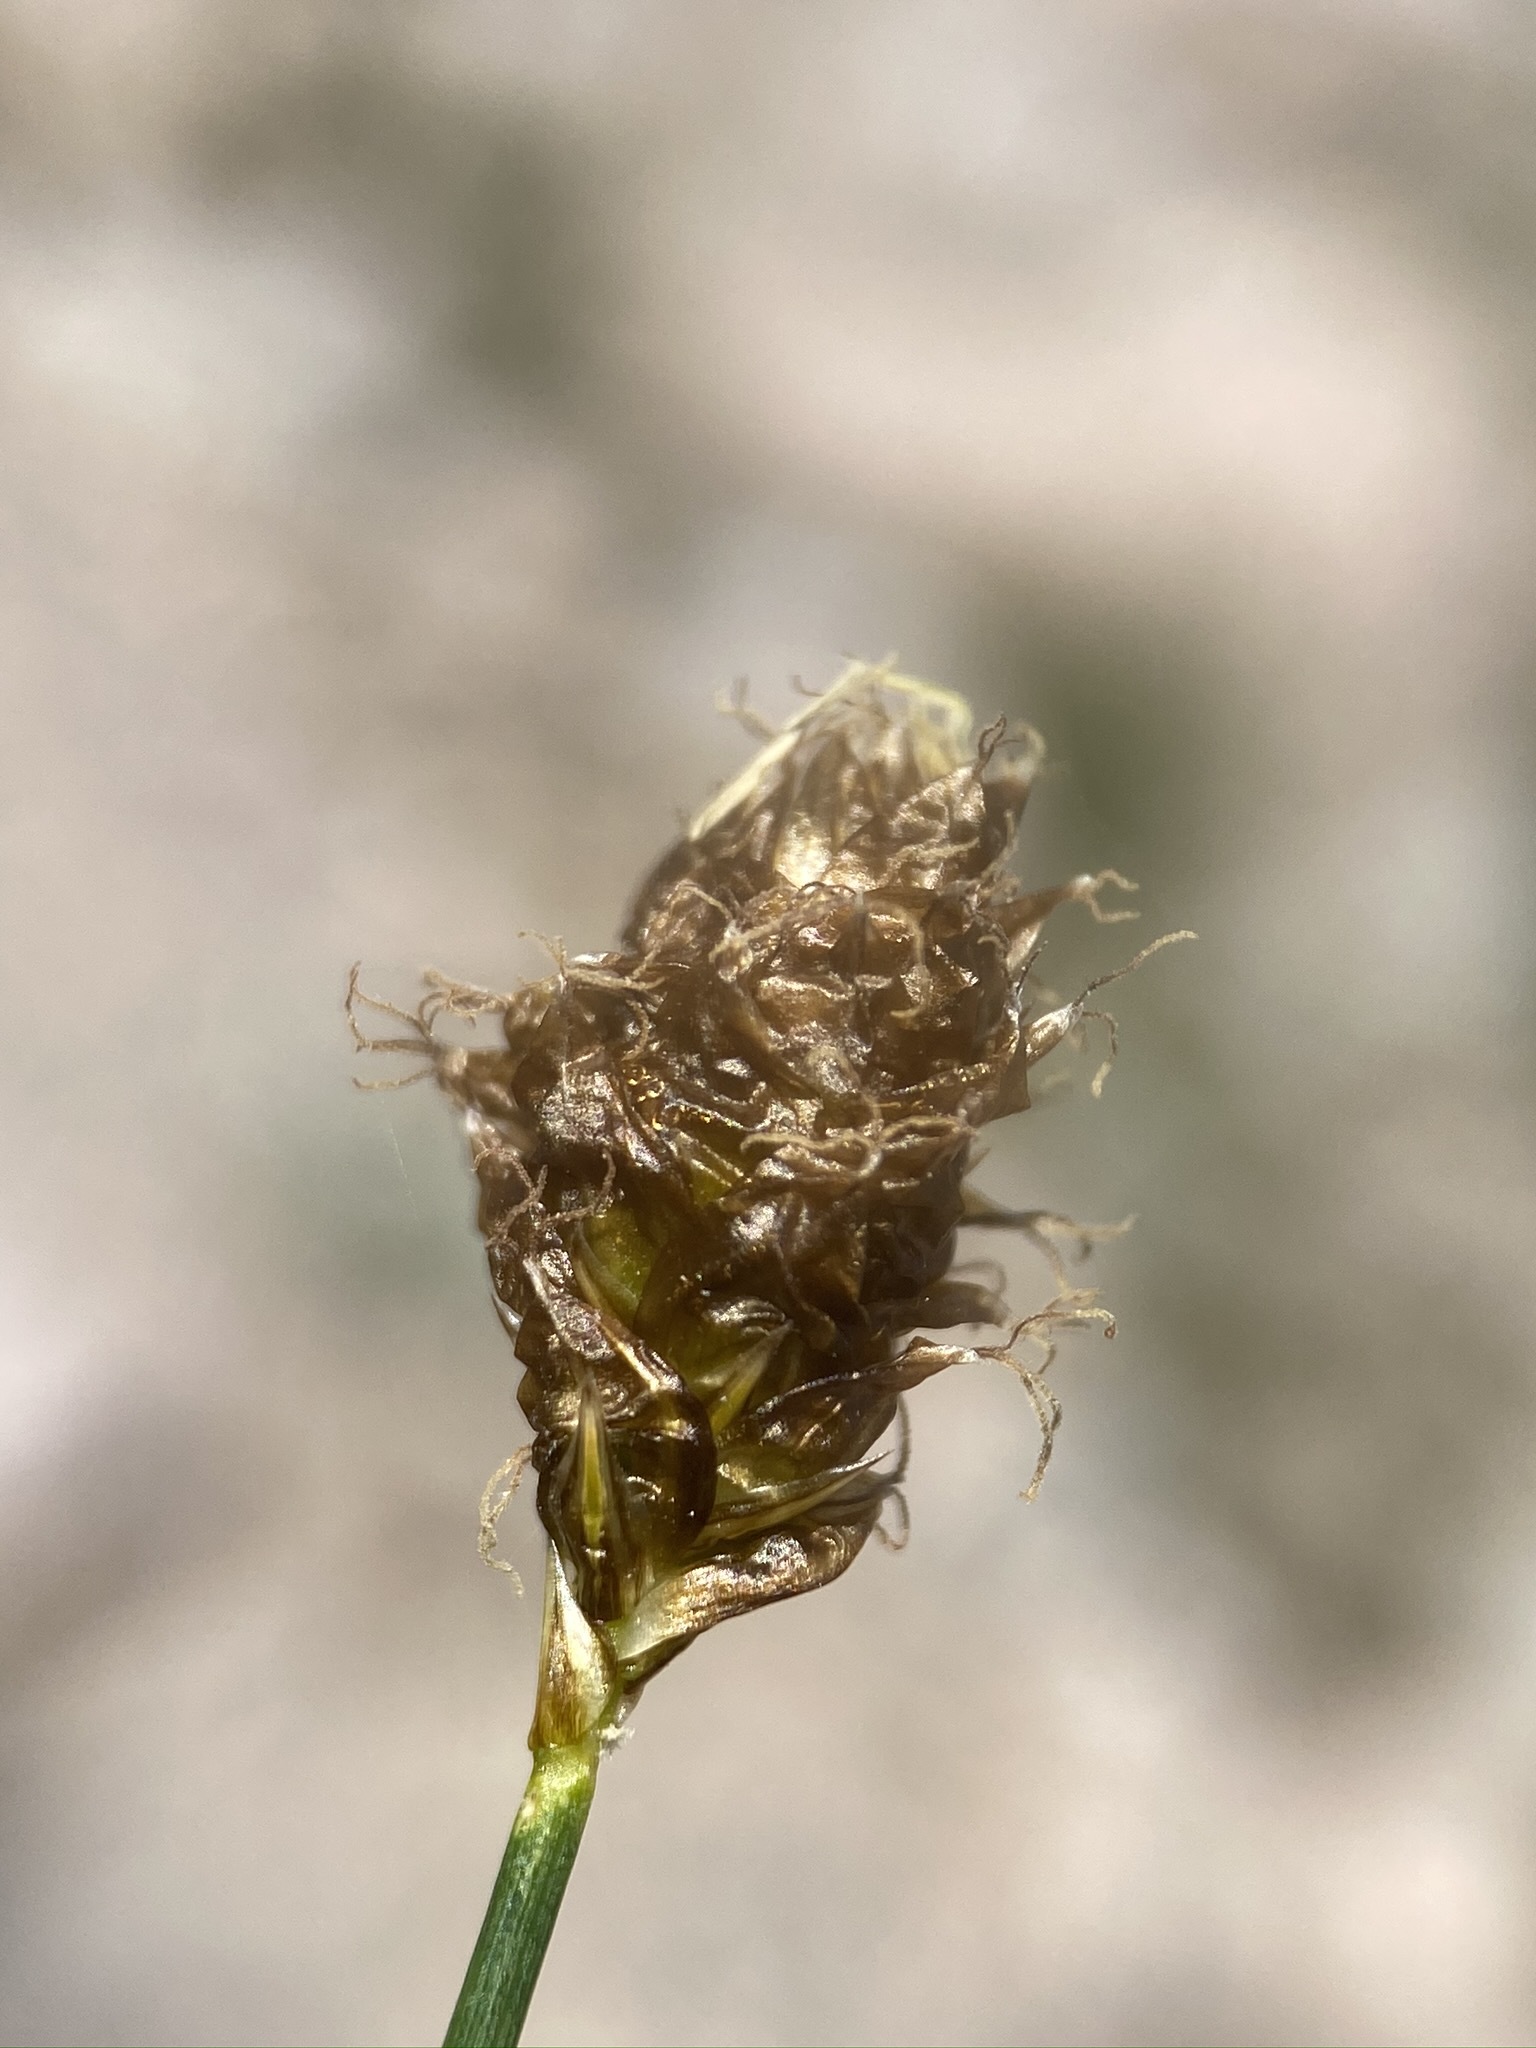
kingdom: Plantae
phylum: Tracheophyta
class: Liliopsida
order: Poales
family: Cyperaceae
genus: Carex
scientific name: Carex breweri
